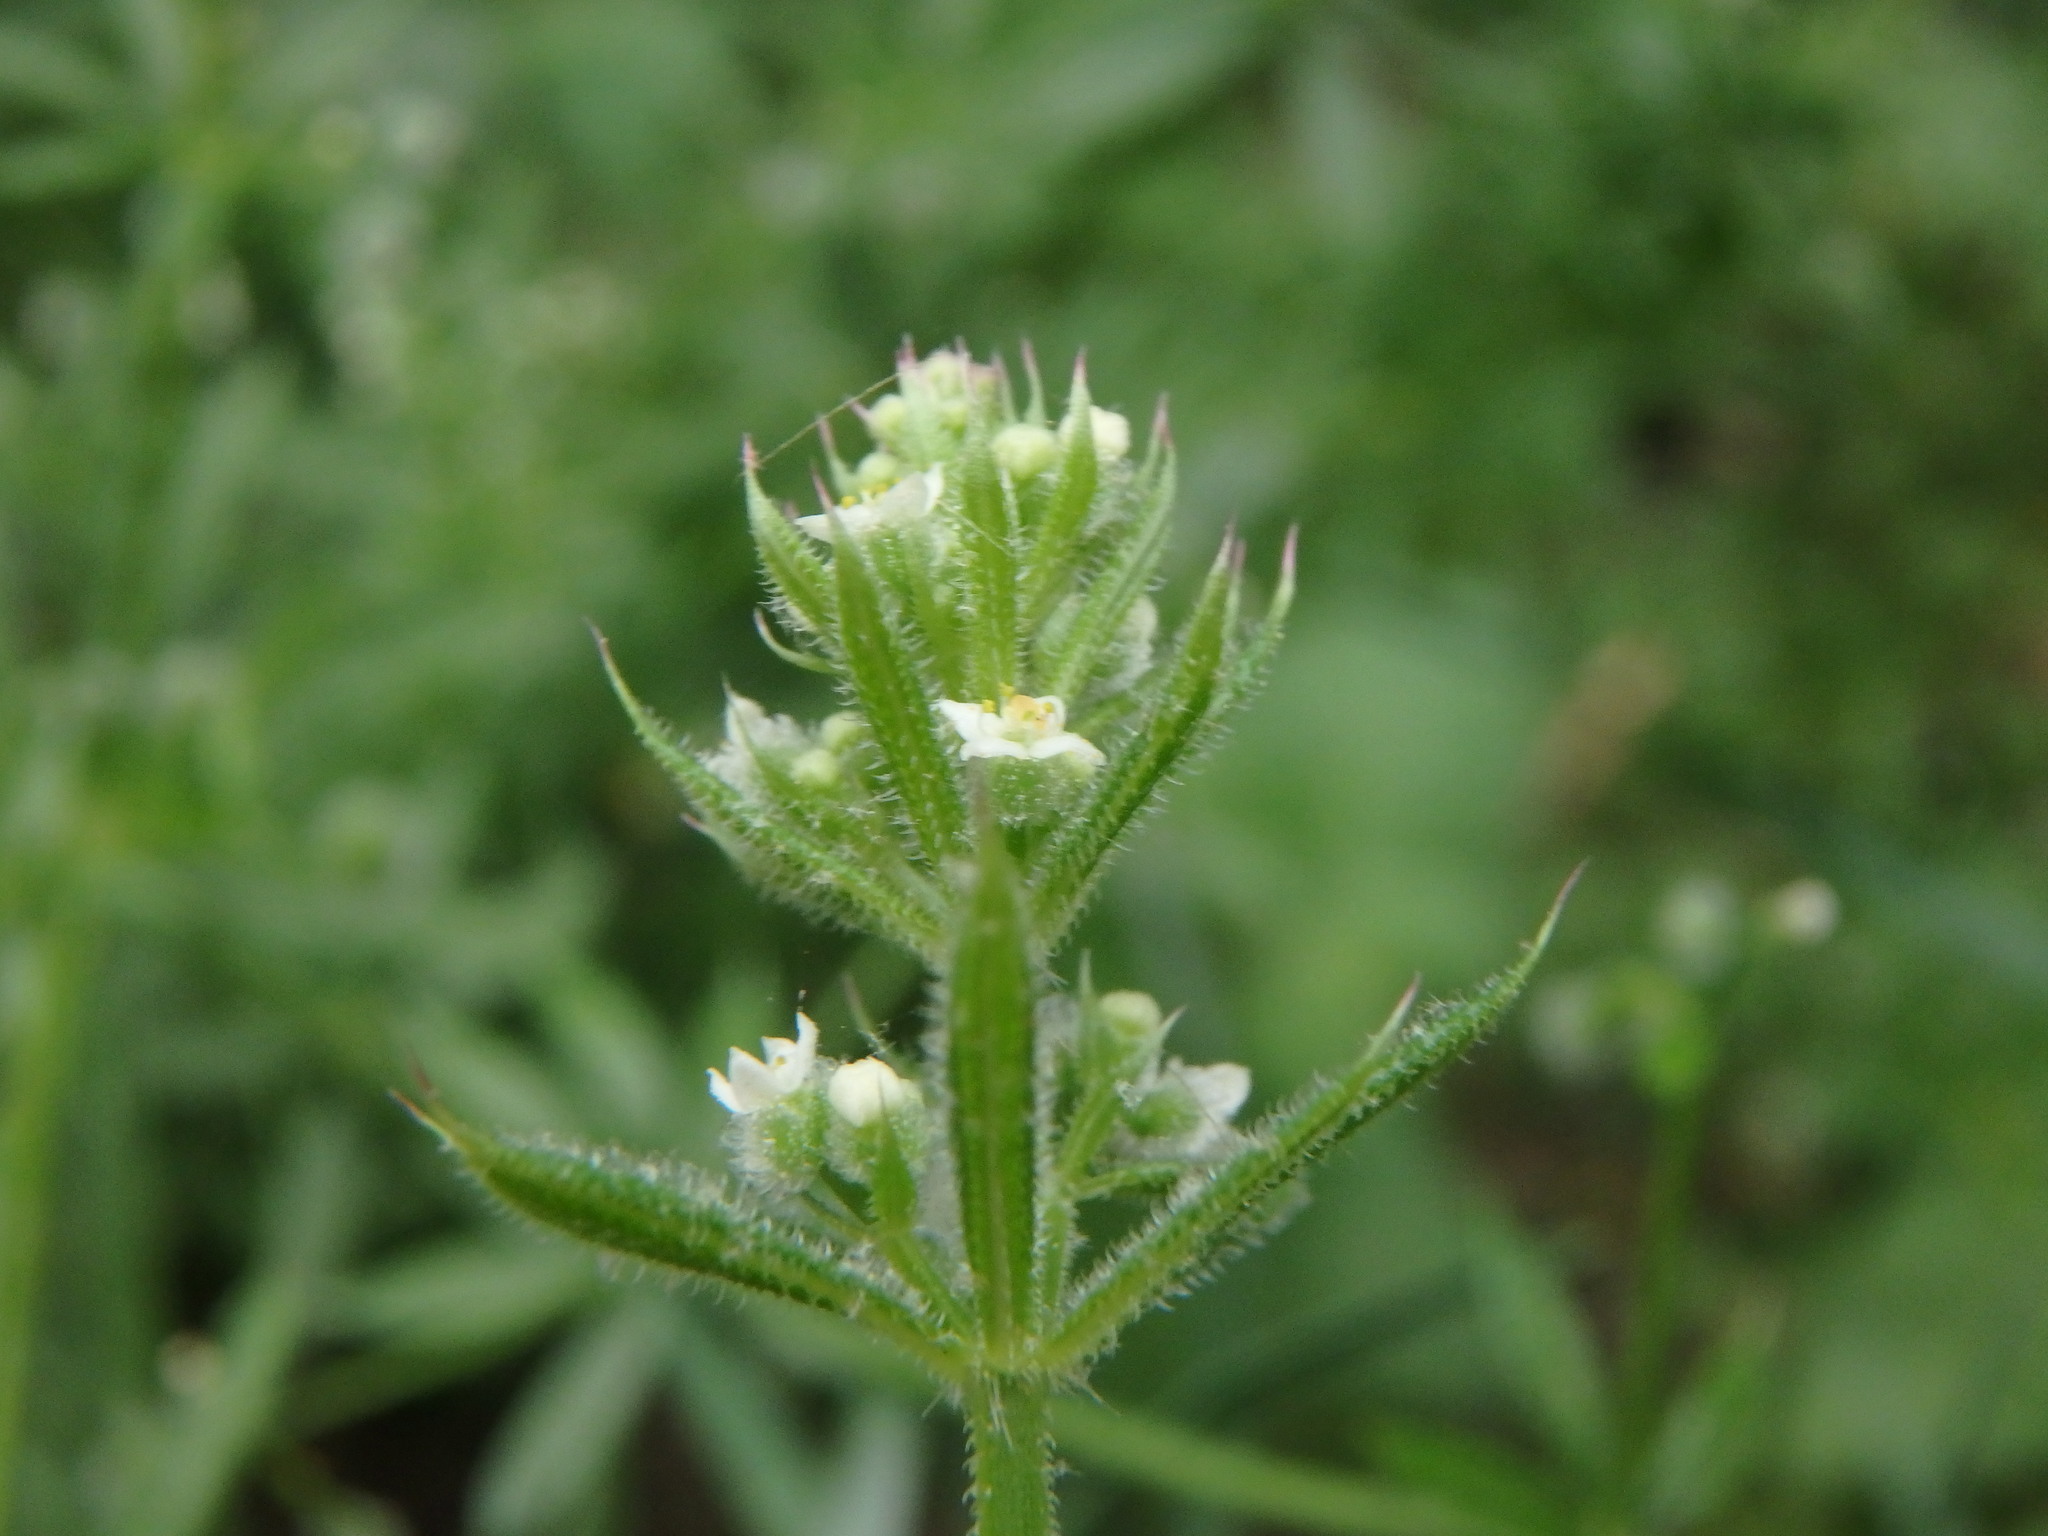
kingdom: Plantae
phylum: Tracheophyta
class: Magnoliopsida
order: Gentianales
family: Rubiaceae
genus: Galium
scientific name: Galium aparine
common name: Cleavers
